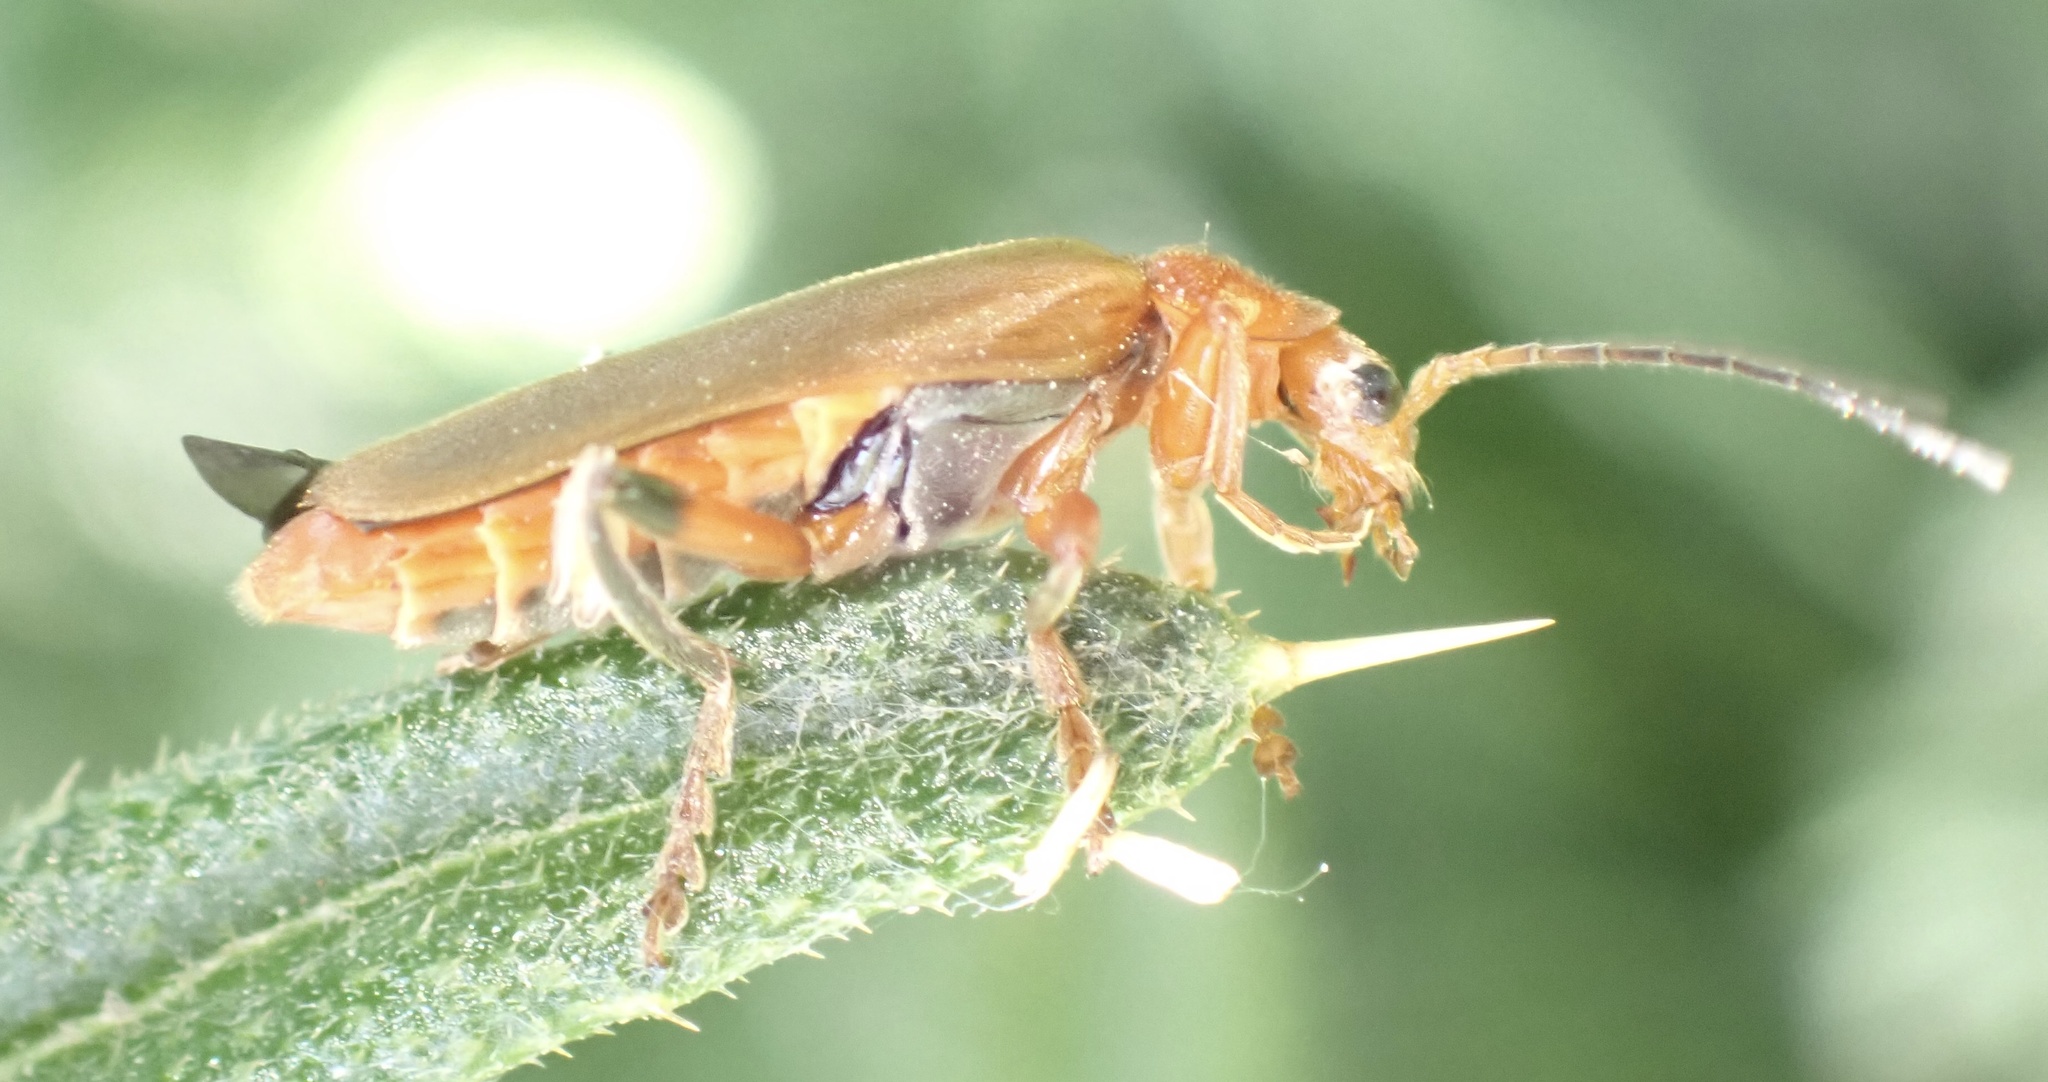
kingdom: Animalia
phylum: Arthropoda
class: Insecta
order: Coleoptera
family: Cantharidae
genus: Cantharis
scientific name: Cantharis livida
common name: Livid soldier beetle
